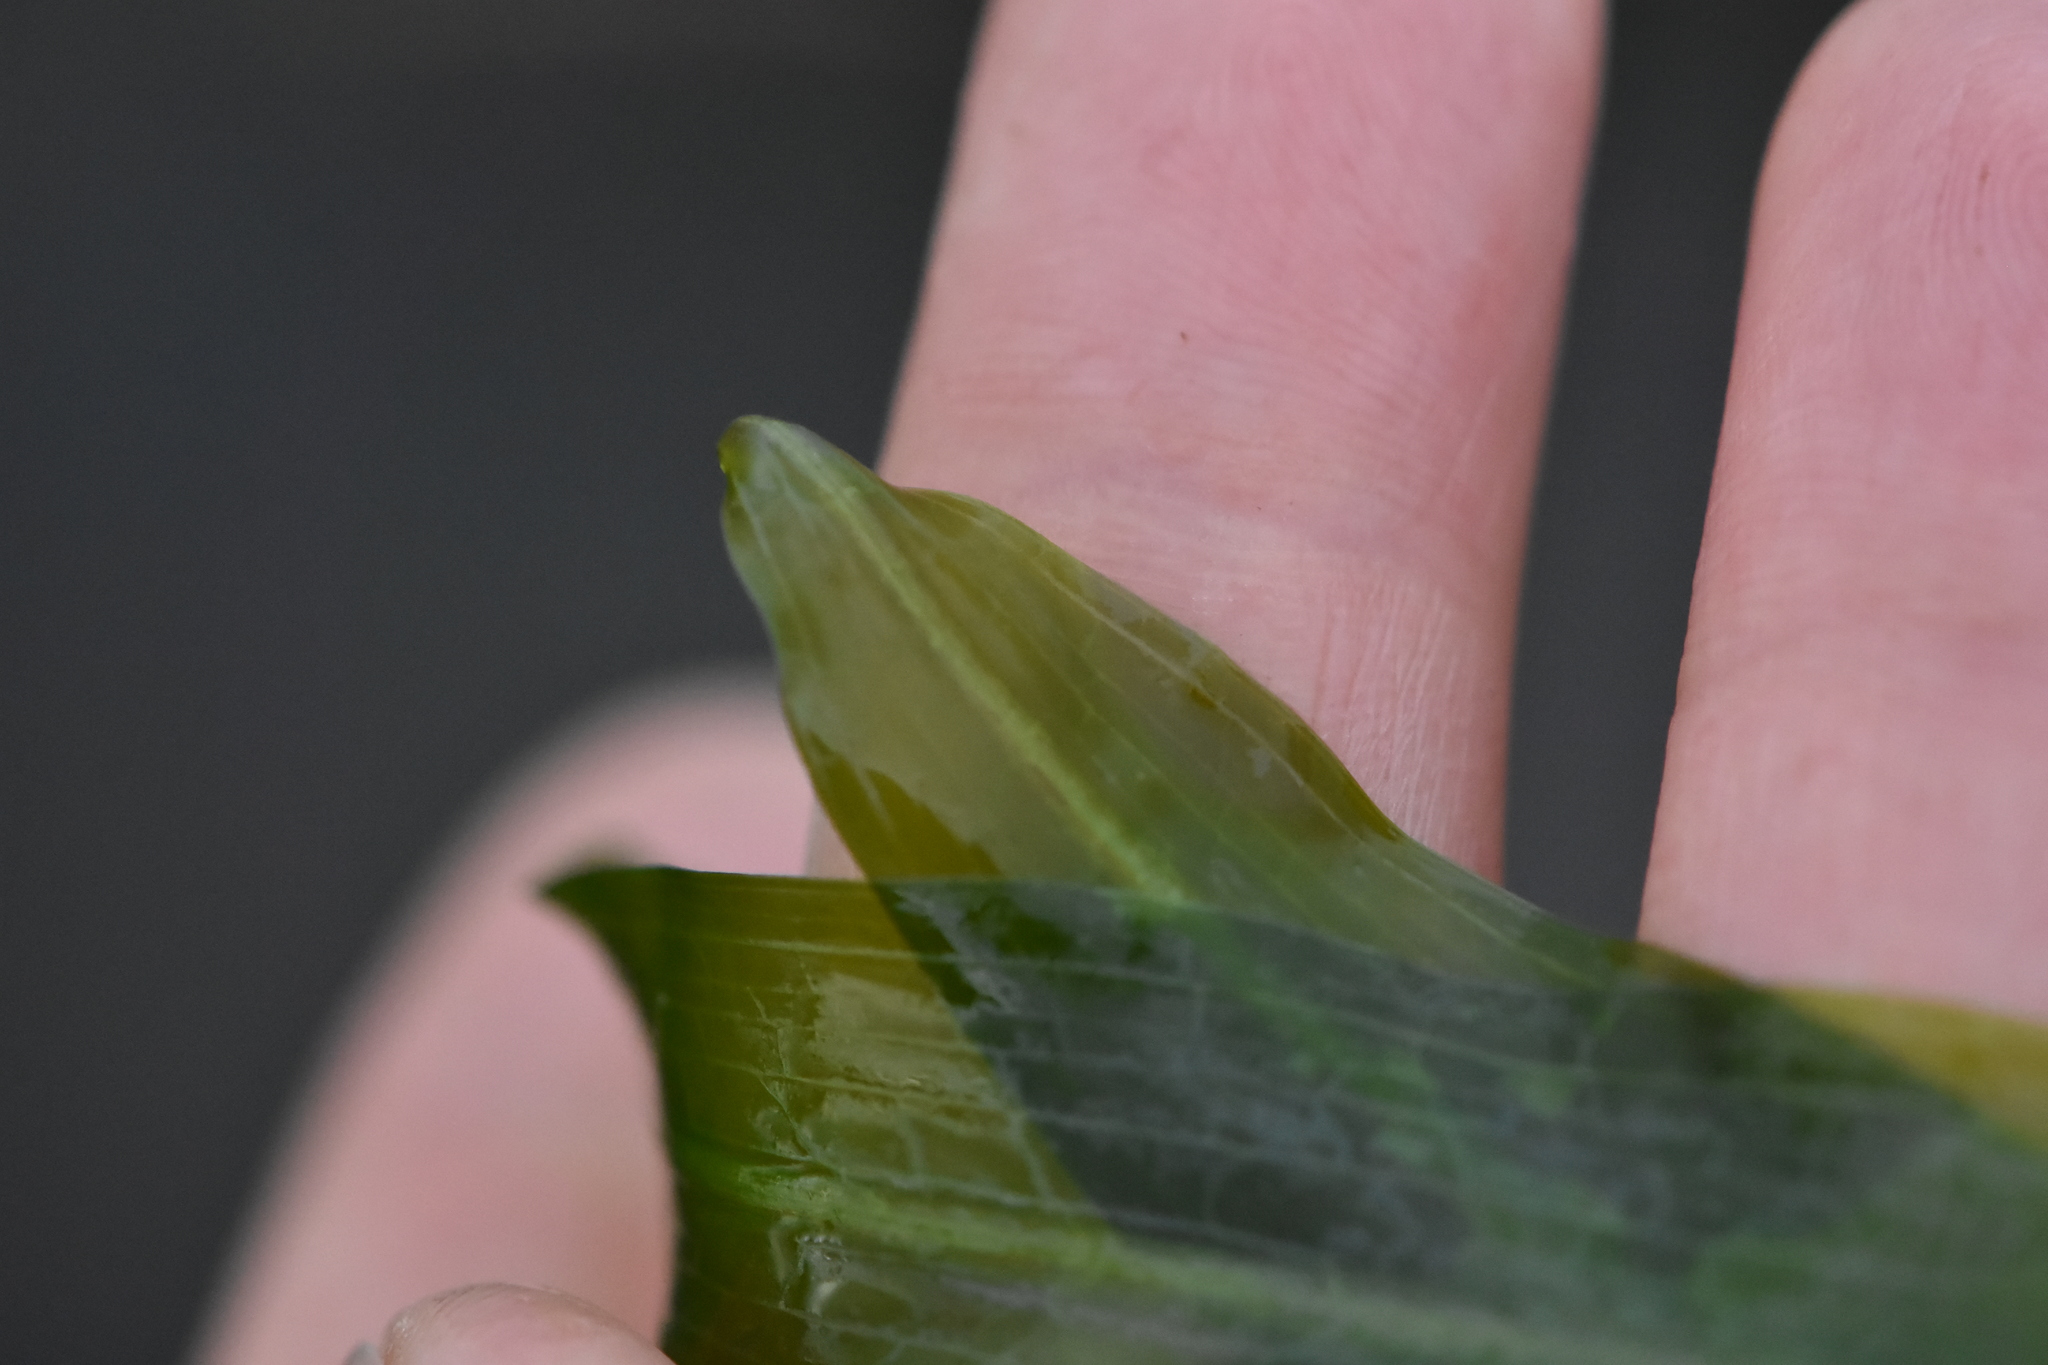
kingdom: Plantae
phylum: Tracheophyta
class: Liliopsida
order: Alismatales
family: Potamogetonaceae
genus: Potamogeton
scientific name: Potamogeton praelongus
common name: Long-stalked pondweed
